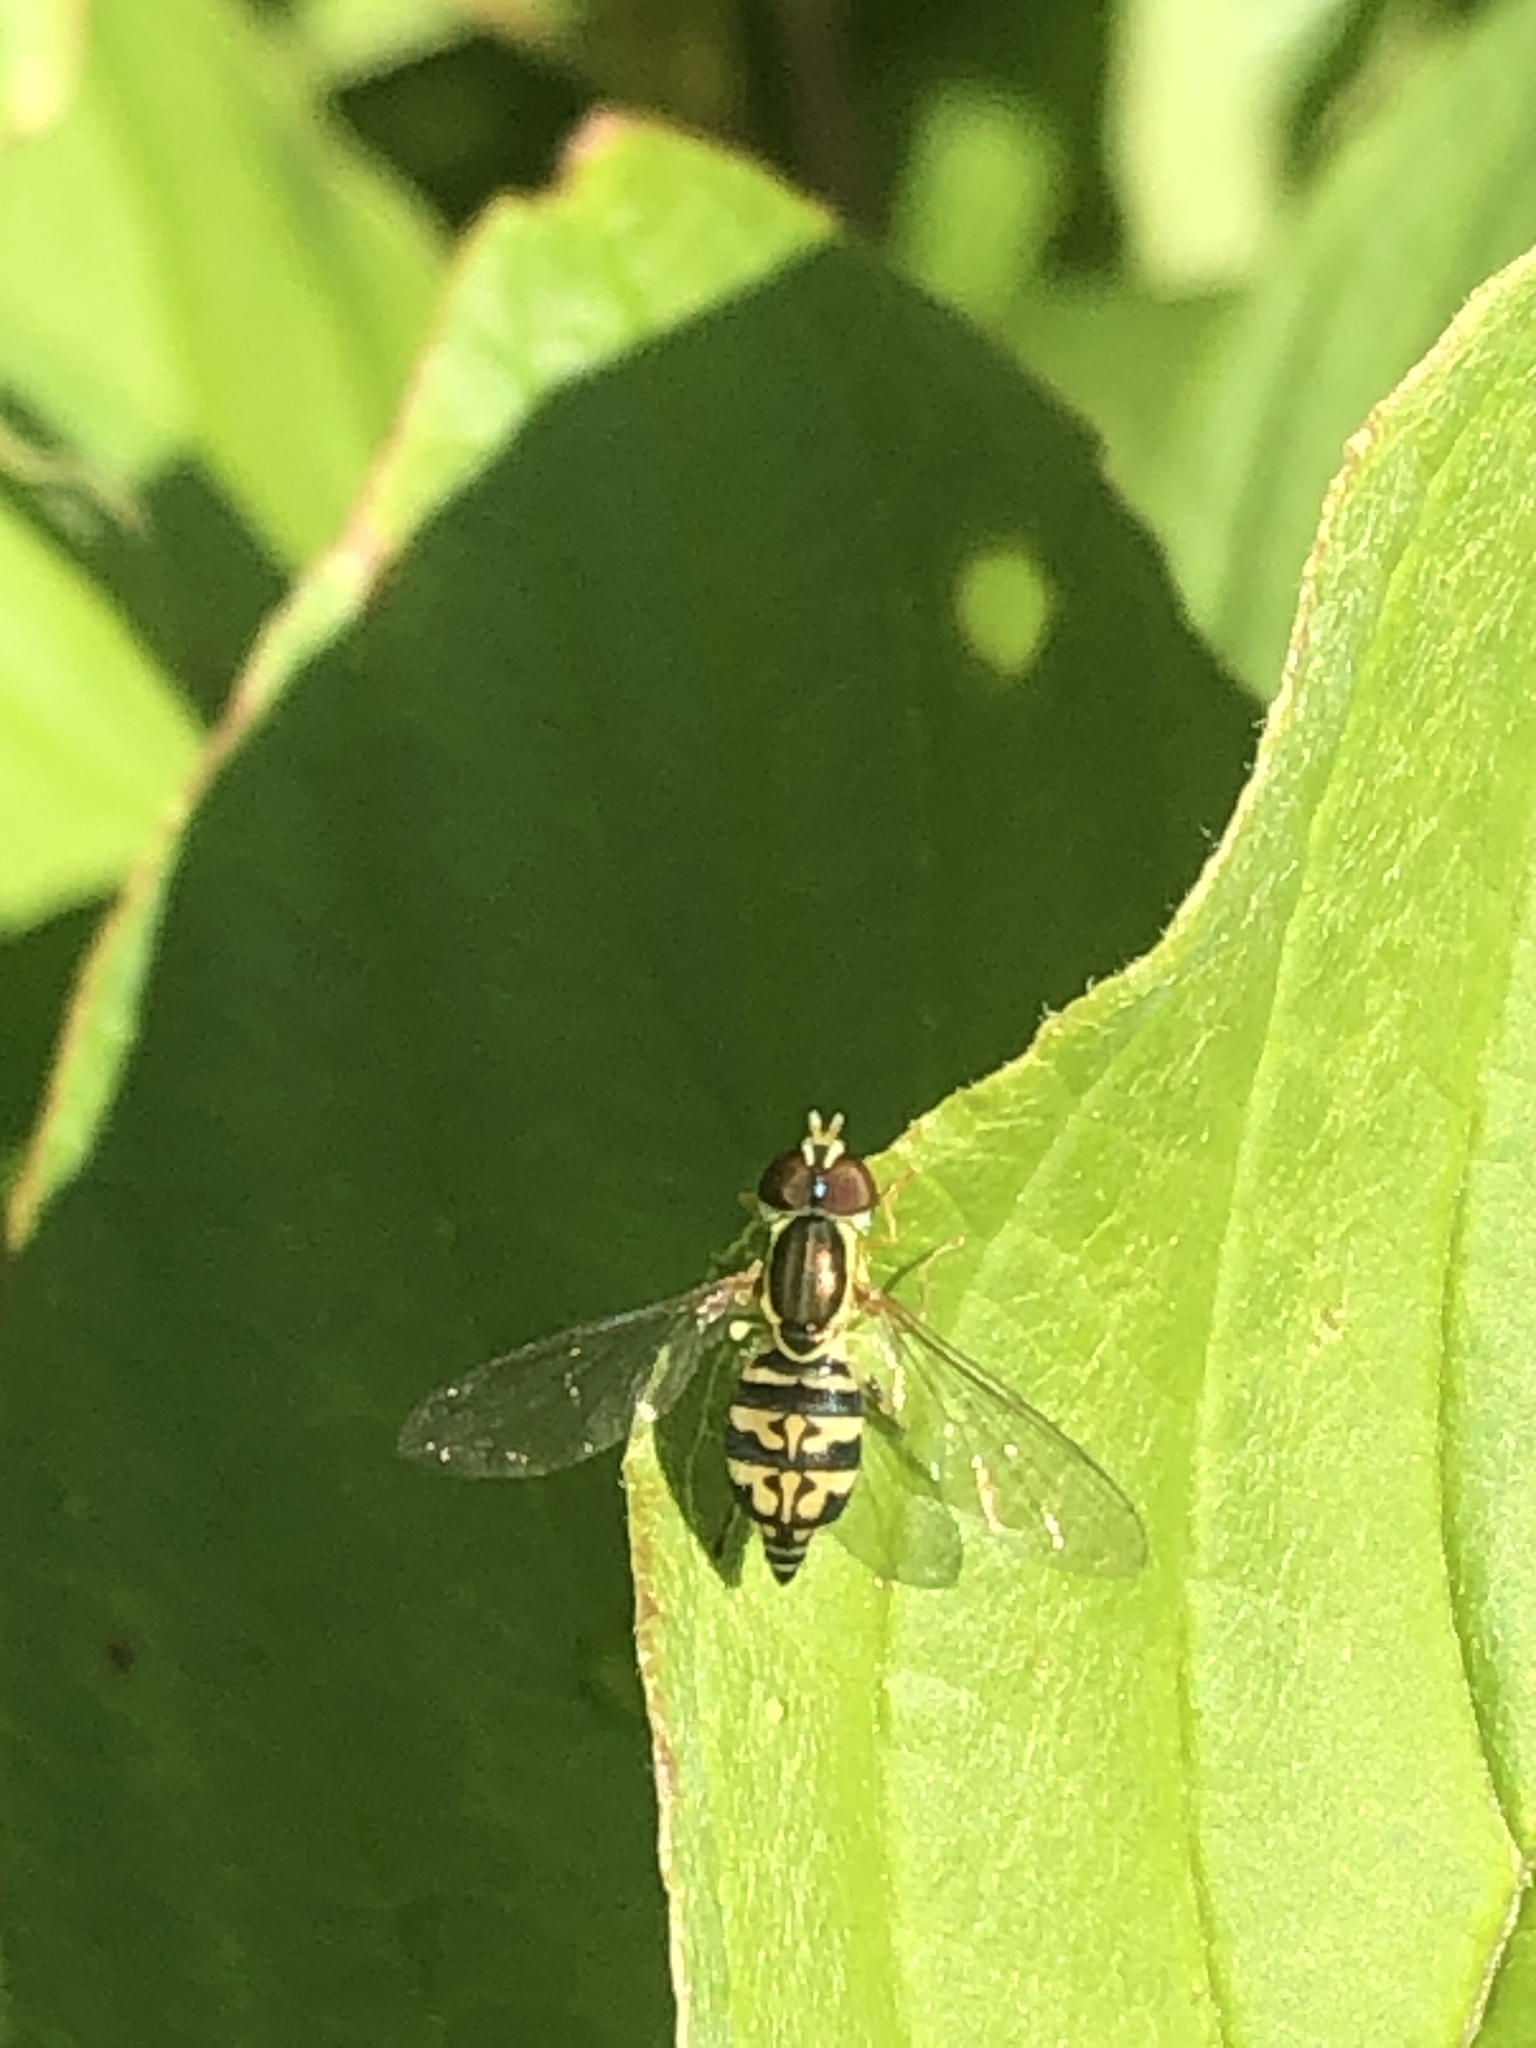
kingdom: Animalia
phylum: Arthropoda
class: Insecta
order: Diptera
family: Syrphidae
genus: Toxomerus
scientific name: Toxomerus geminatus
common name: Eastern calligrapher
